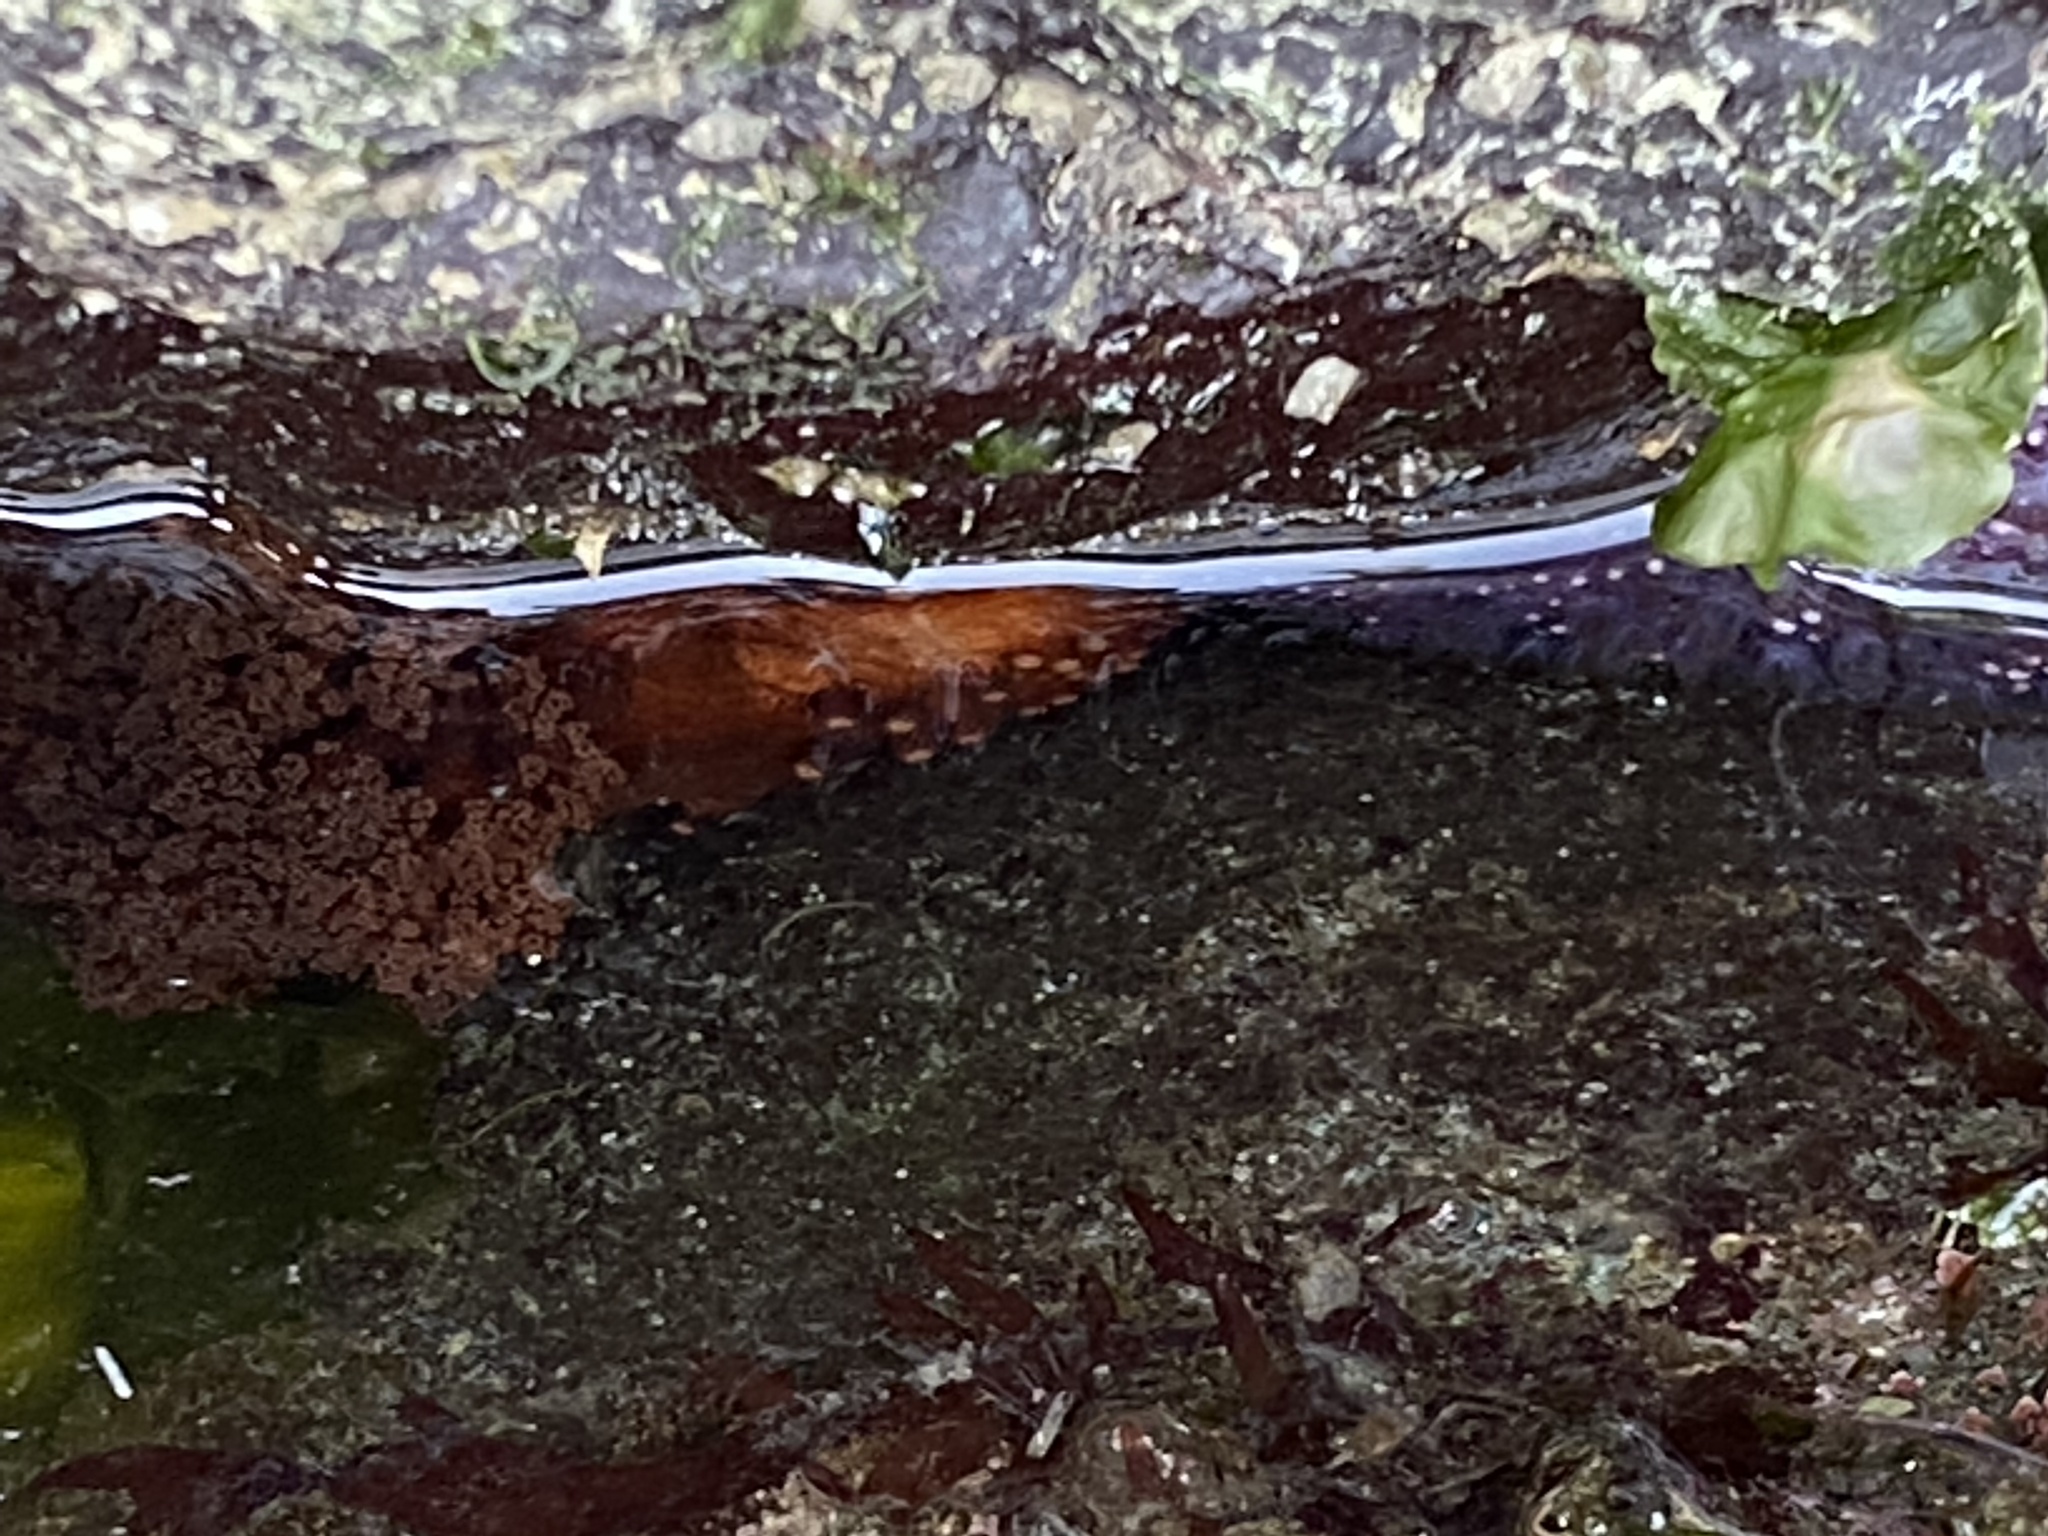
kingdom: Animalia
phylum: Echinodermata
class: Holothuroidea
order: Dendrochirotida
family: Cucumariidae
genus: Cucumaria
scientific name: Cucumaria miniata
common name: Orange sea cucumber
